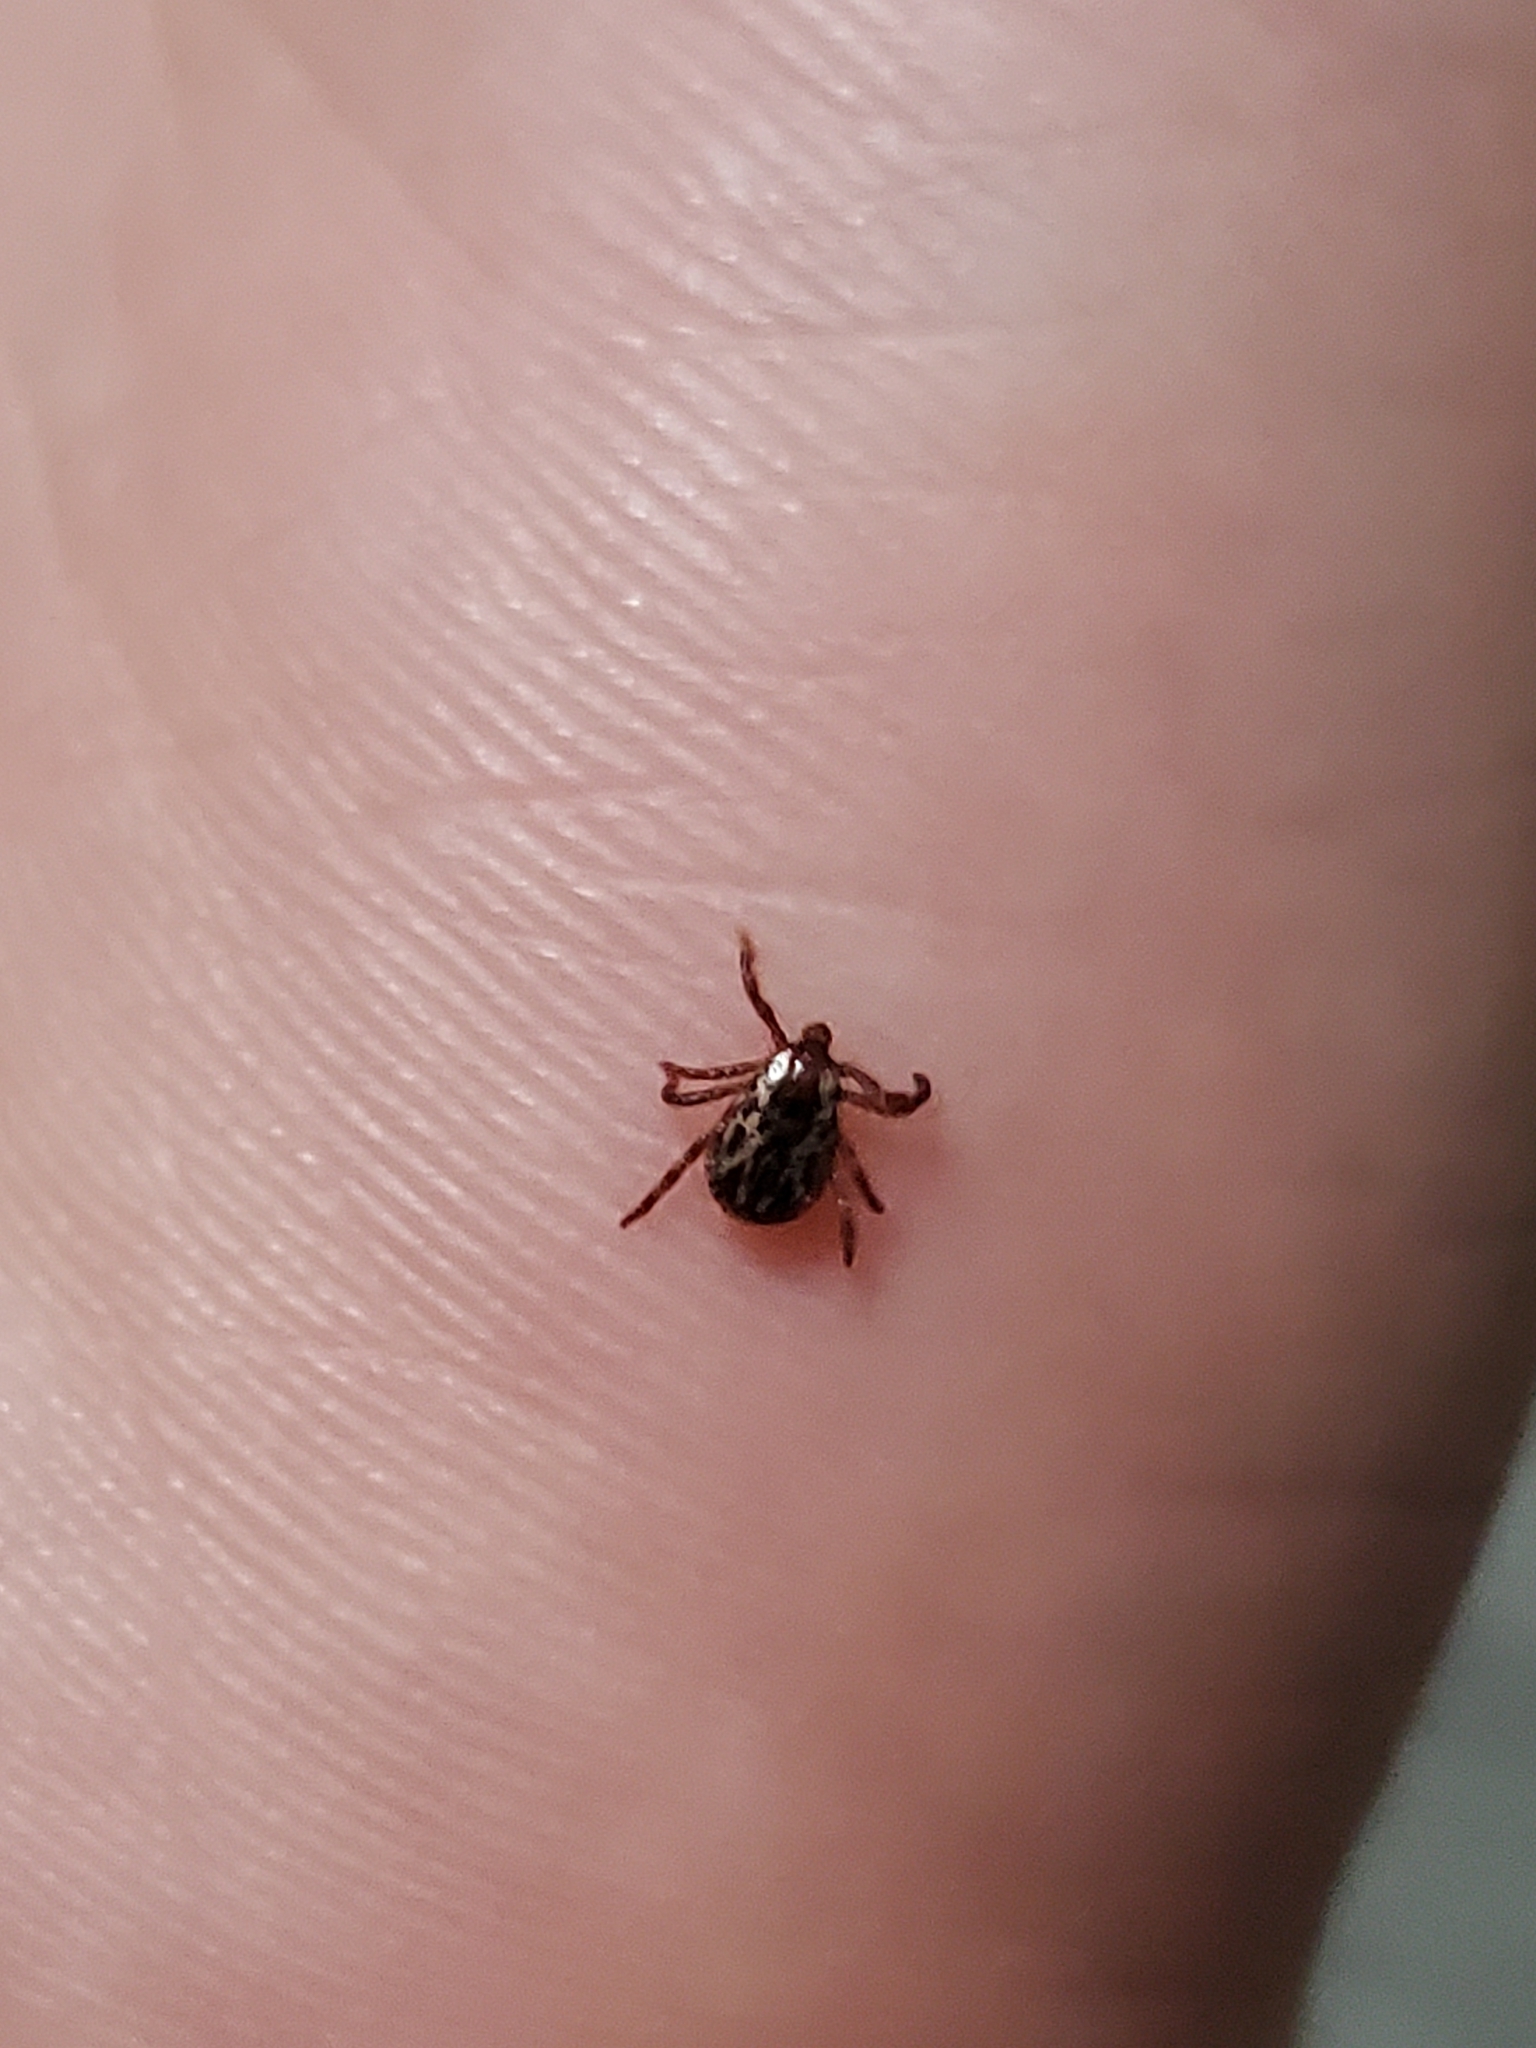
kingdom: Animalia
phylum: Arthropoda
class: Arachnida
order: Ixodida
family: Ixodidae
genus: Dermacentor
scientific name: Dermacentor variabilis
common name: American dog tick
